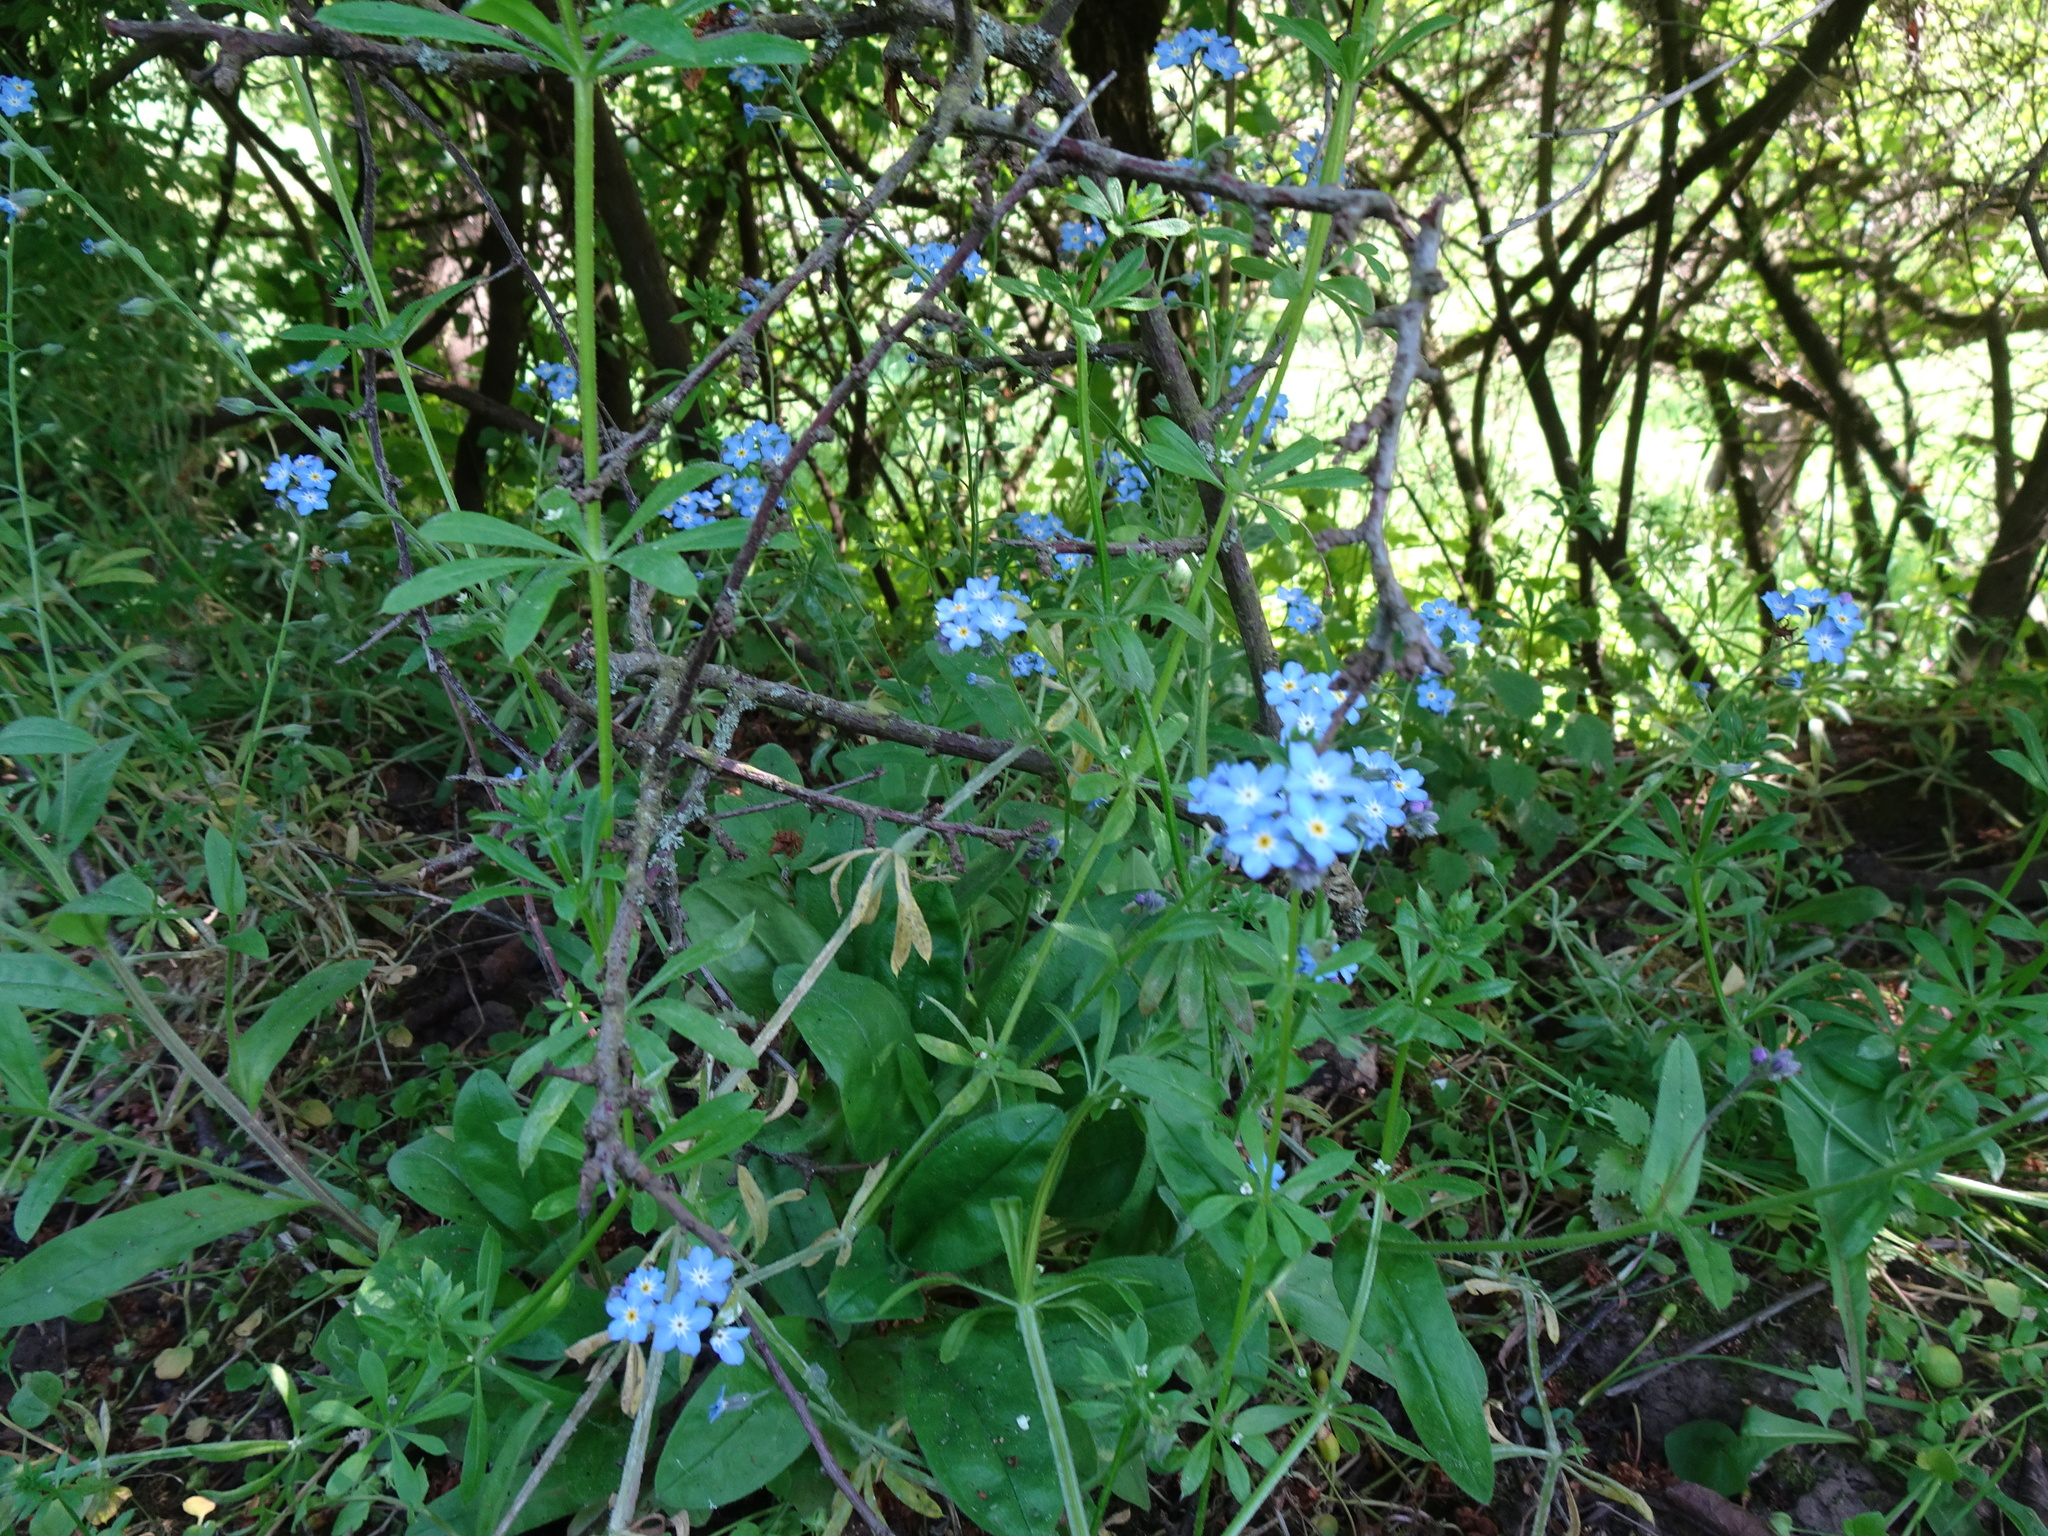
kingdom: Plantae
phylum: Tracheophyta
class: Magnoliopsida
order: Boraginales
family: Boraginaceae
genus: Myosotis
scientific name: Myosotis sylvatica
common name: Wood forget-me-not
